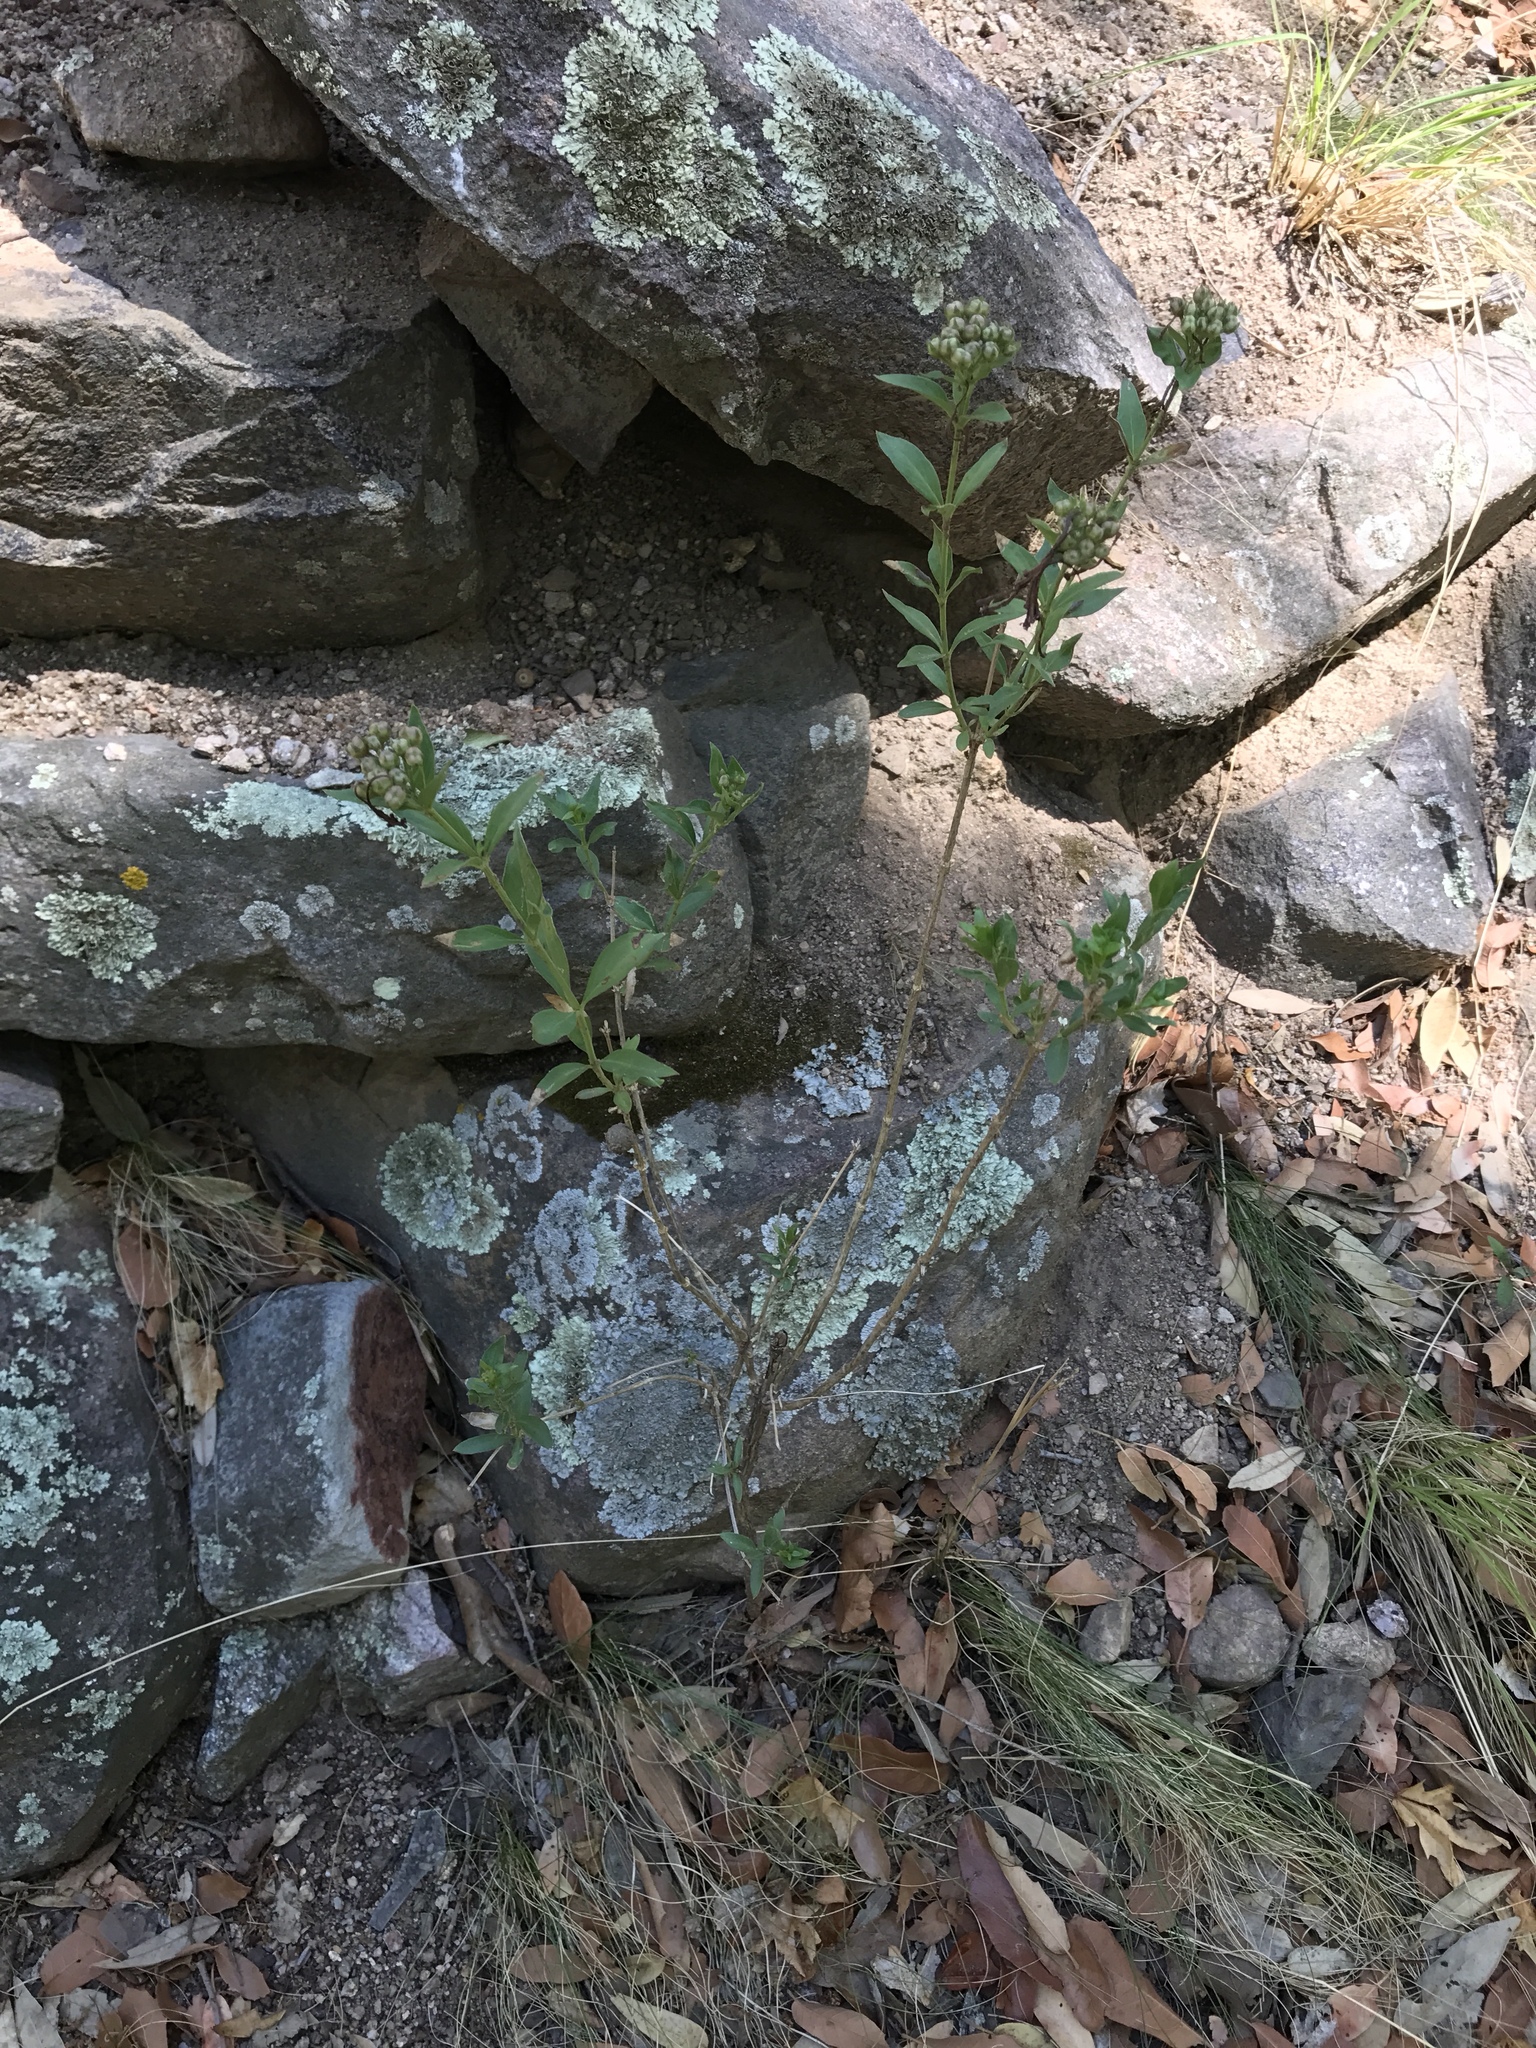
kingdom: Plantae
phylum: Tracheophyta
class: Magnoliopsida
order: Rosales
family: Rhamnaceae
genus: Ceanothus
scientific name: Ceanothus fendleri
